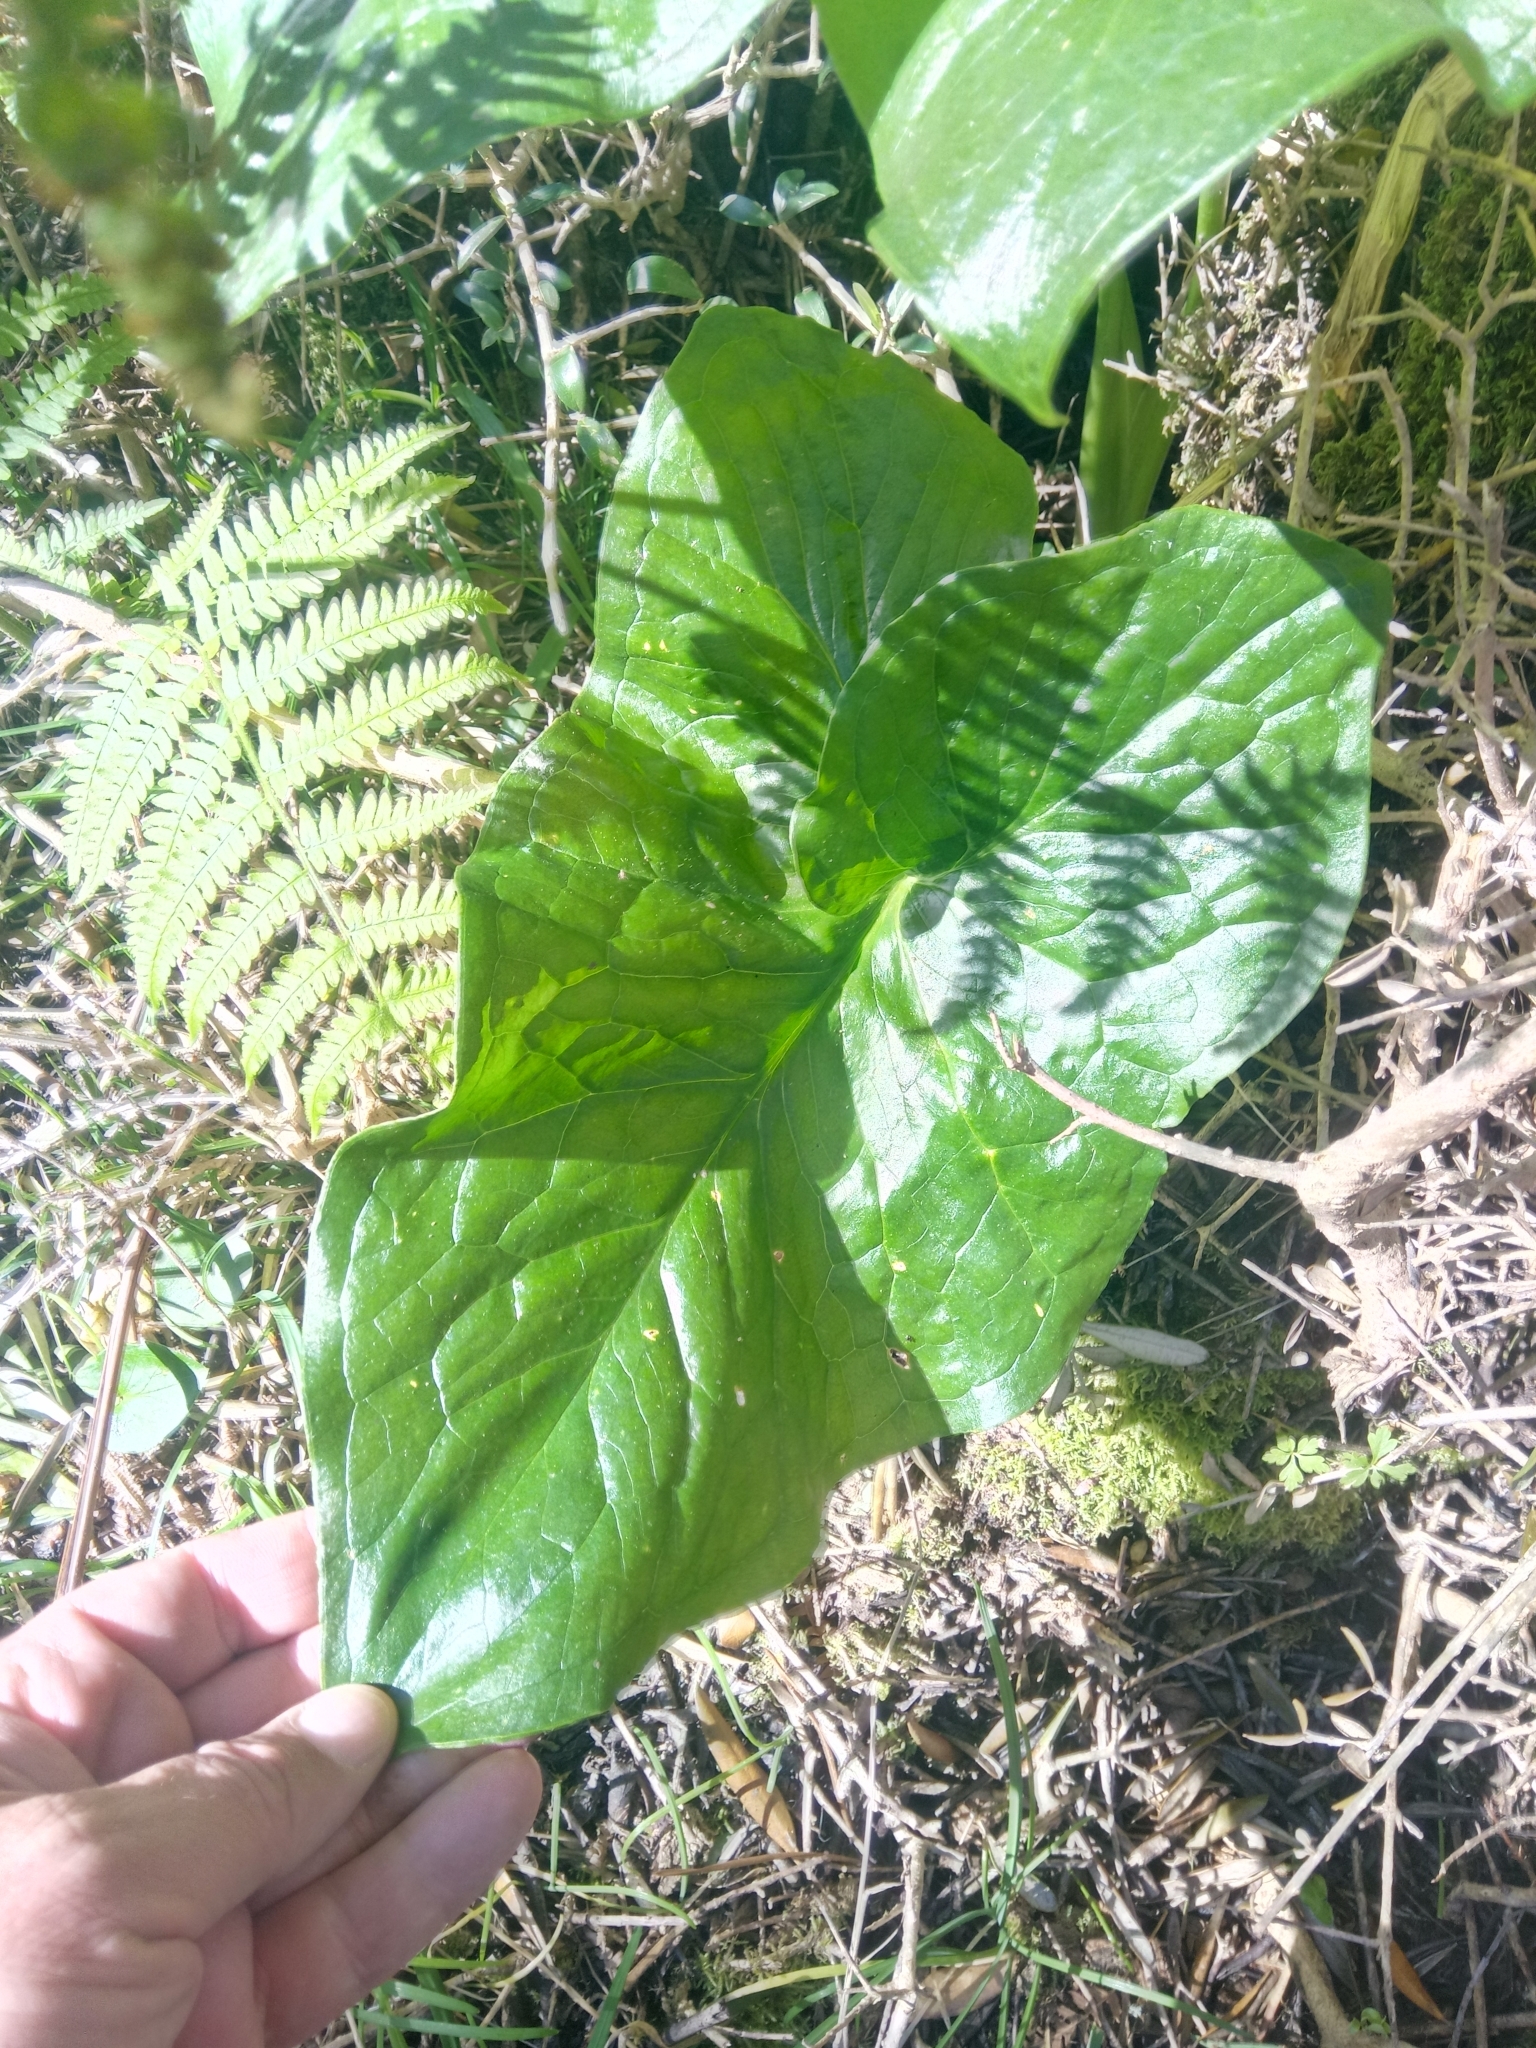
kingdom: Plantae
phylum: Tracheophyta
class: Liliopsida
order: Alismatales
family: Araceae
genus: Arum
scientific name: Arum italicum
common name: Italian lords-and-ladies
